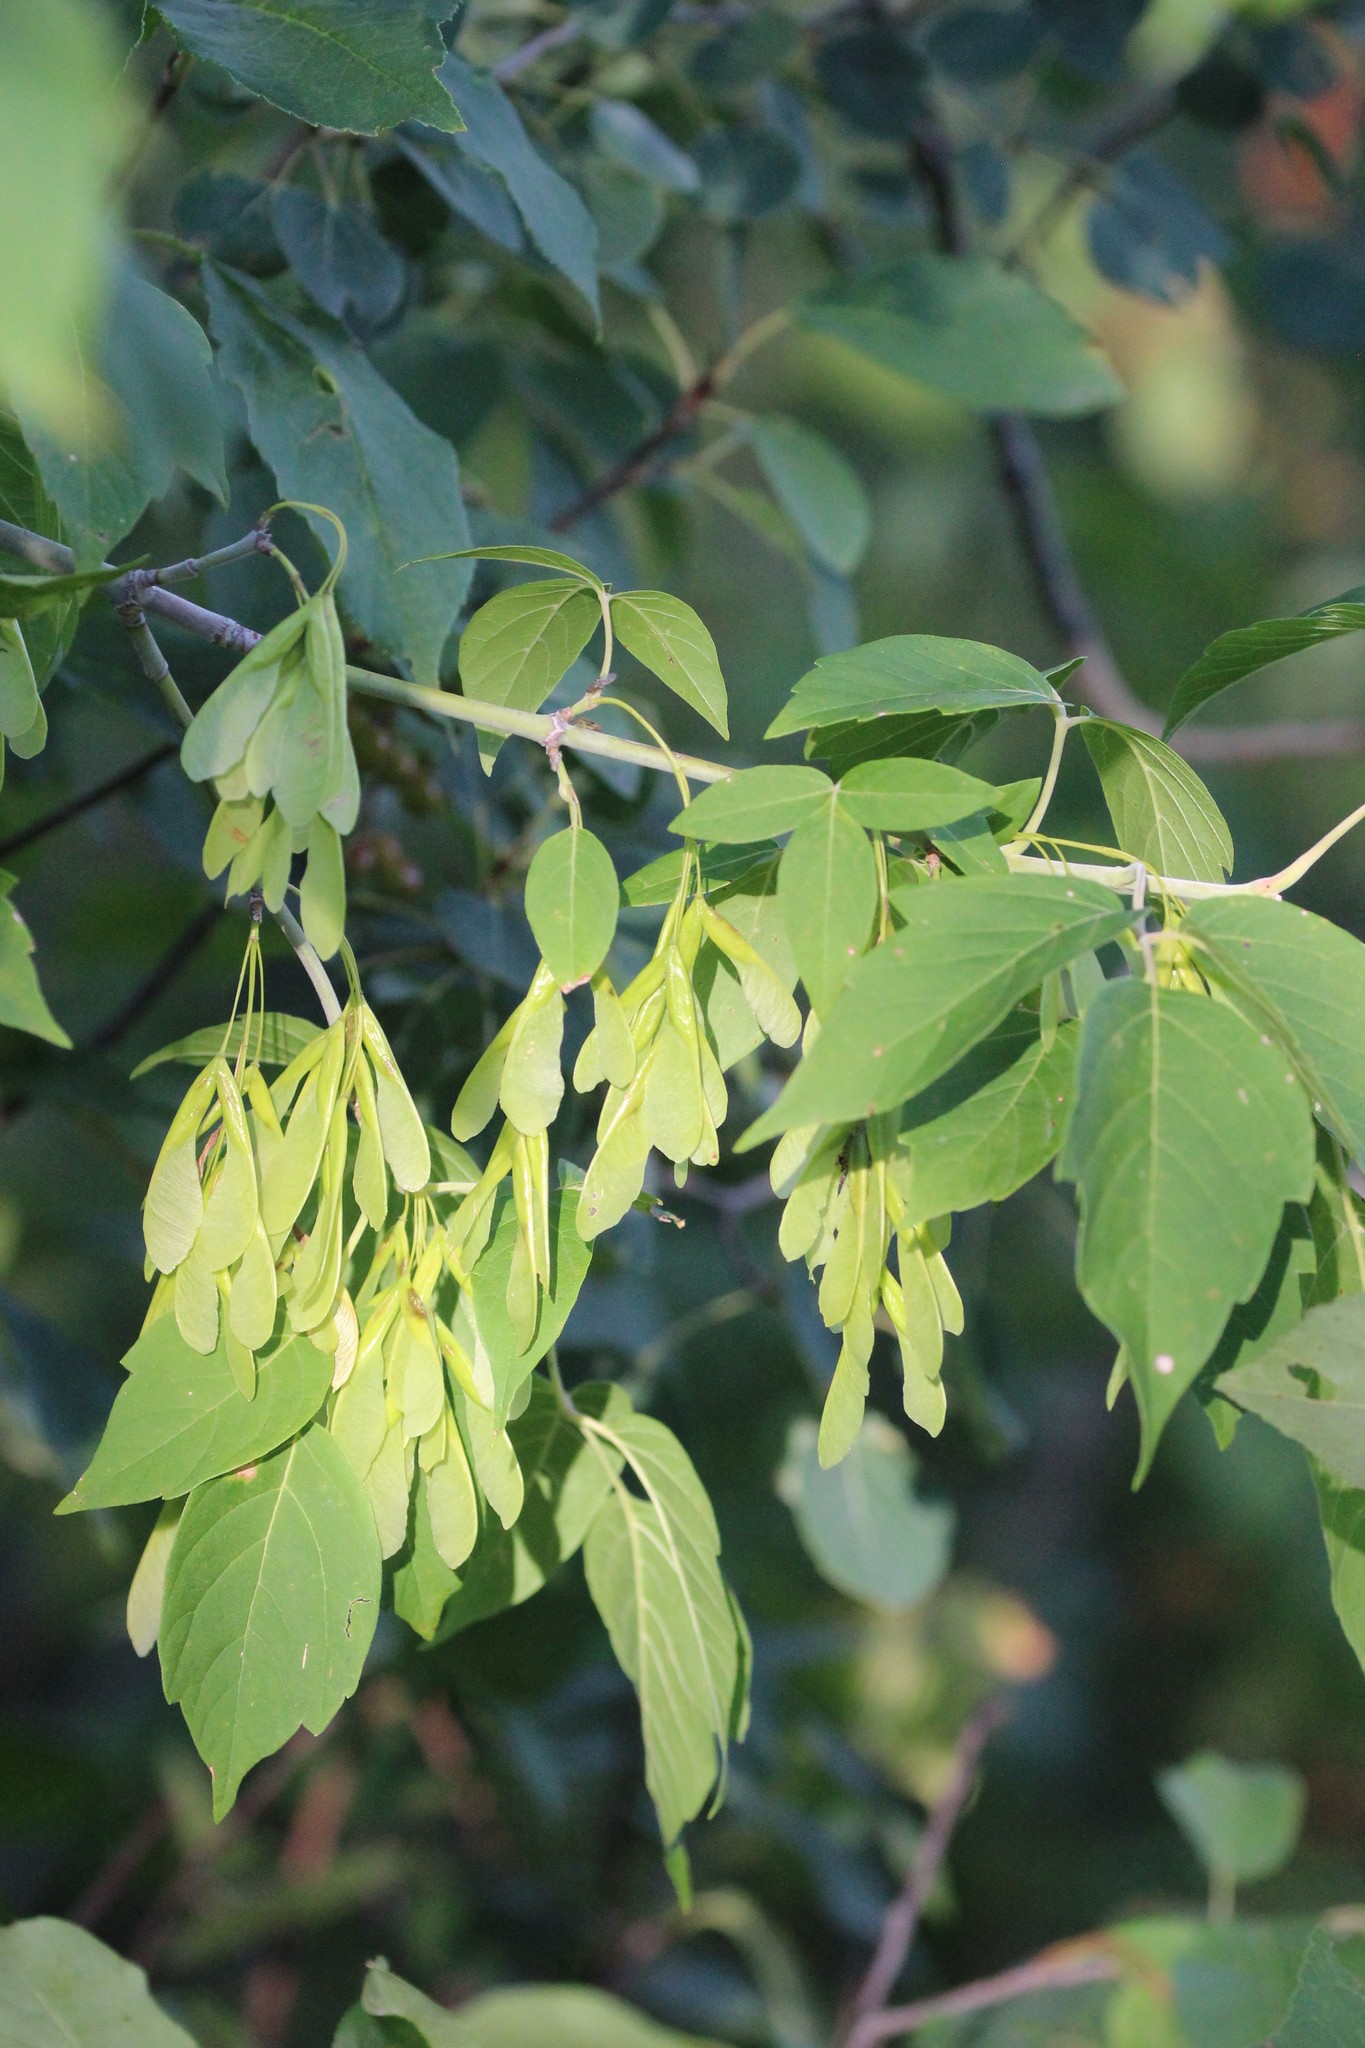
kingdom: Plantae
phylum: Tracheophyta
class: Magnoliopsida
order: Sapindales
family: Sapindaceae
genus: Acer
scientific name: Acer negundo
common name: Ashleaf maple
